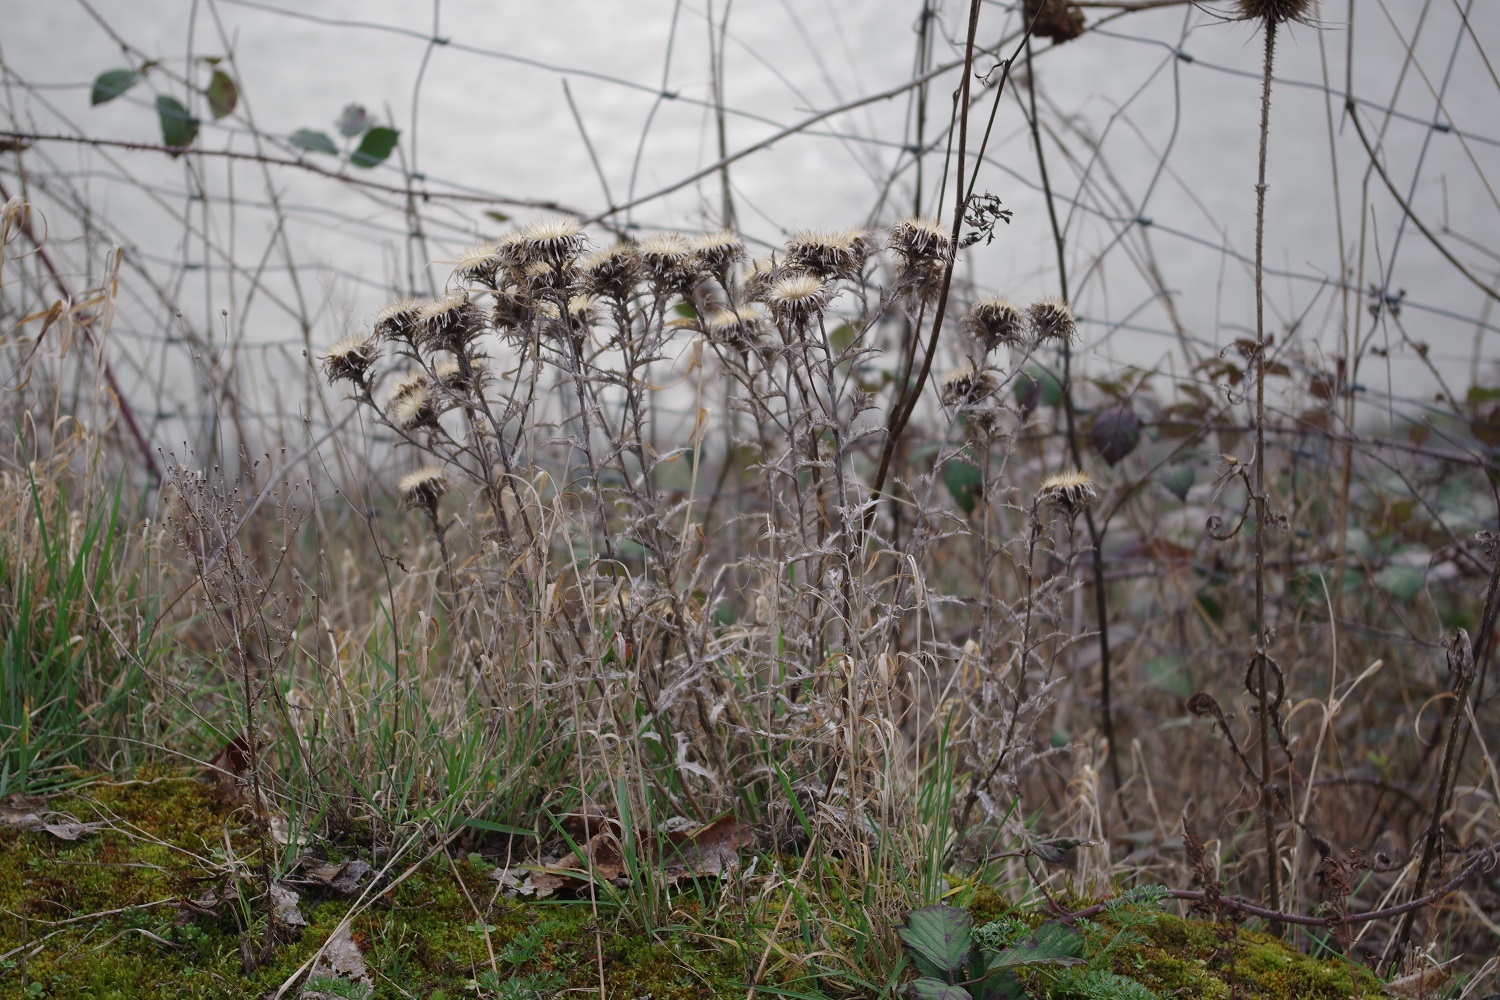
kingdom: Plantae
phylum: Tracheophyta
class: Magnoliopsida
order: Asterales
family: Asteraceae
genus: Carlina
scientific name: Carlina vulgaris
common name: Carline thistle
